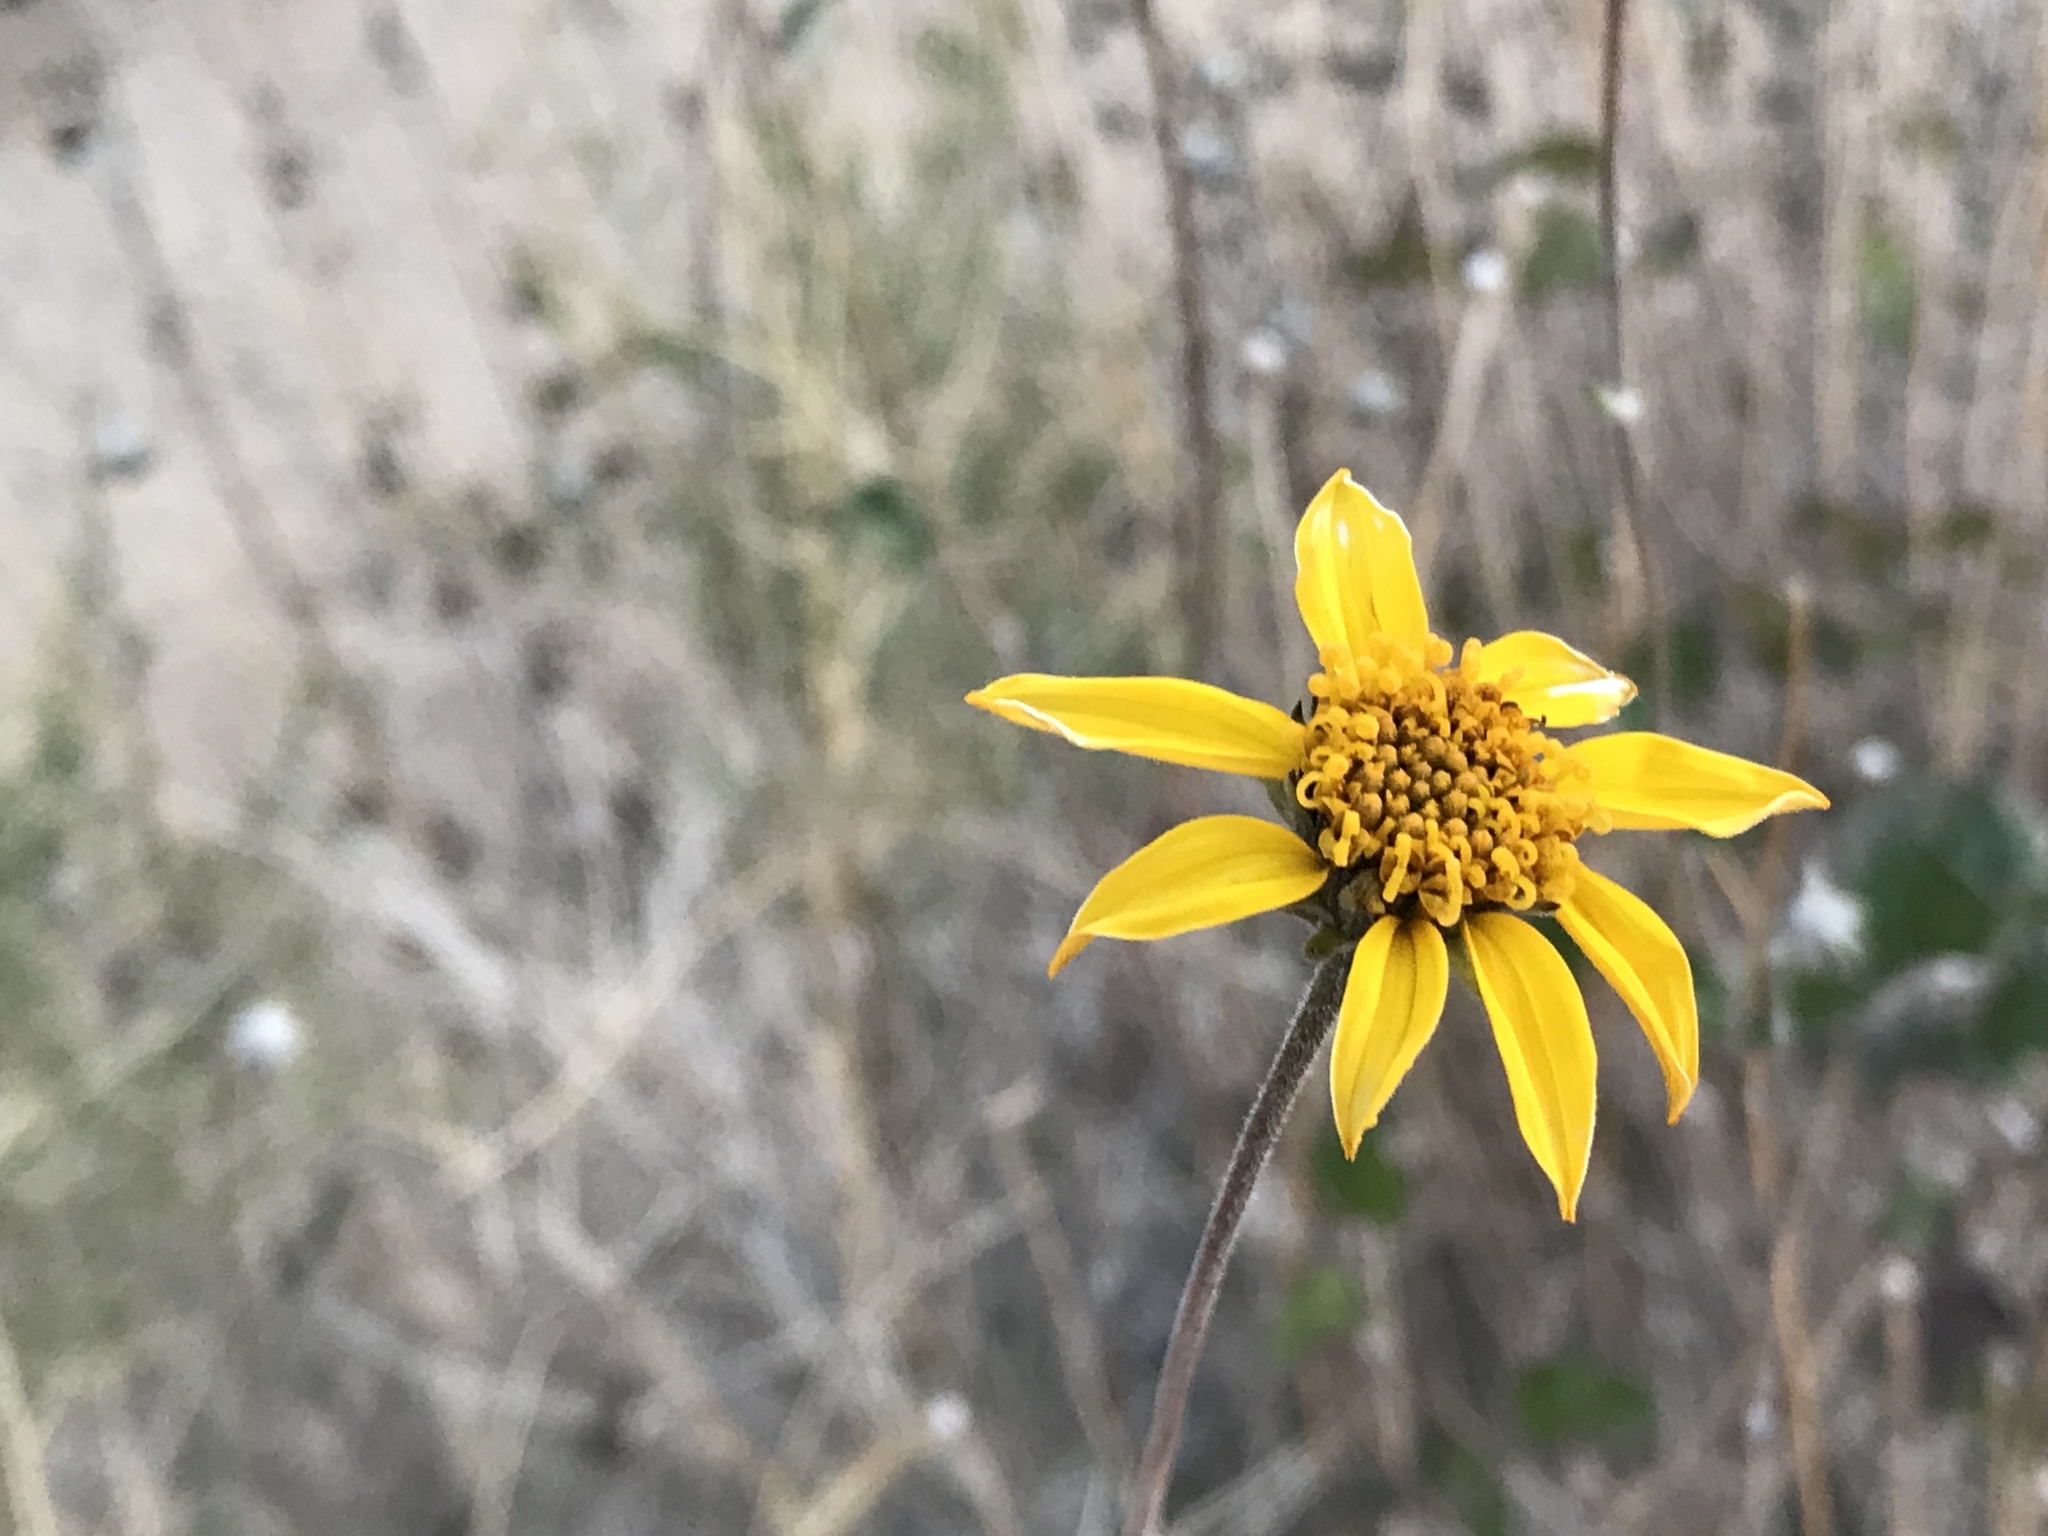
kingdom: Plantae
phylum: Tracheophyta
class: Magnoliopsida
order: Asterales
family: Asteraceae
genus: Bahiopsis
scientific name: Bahiopsis parishii
